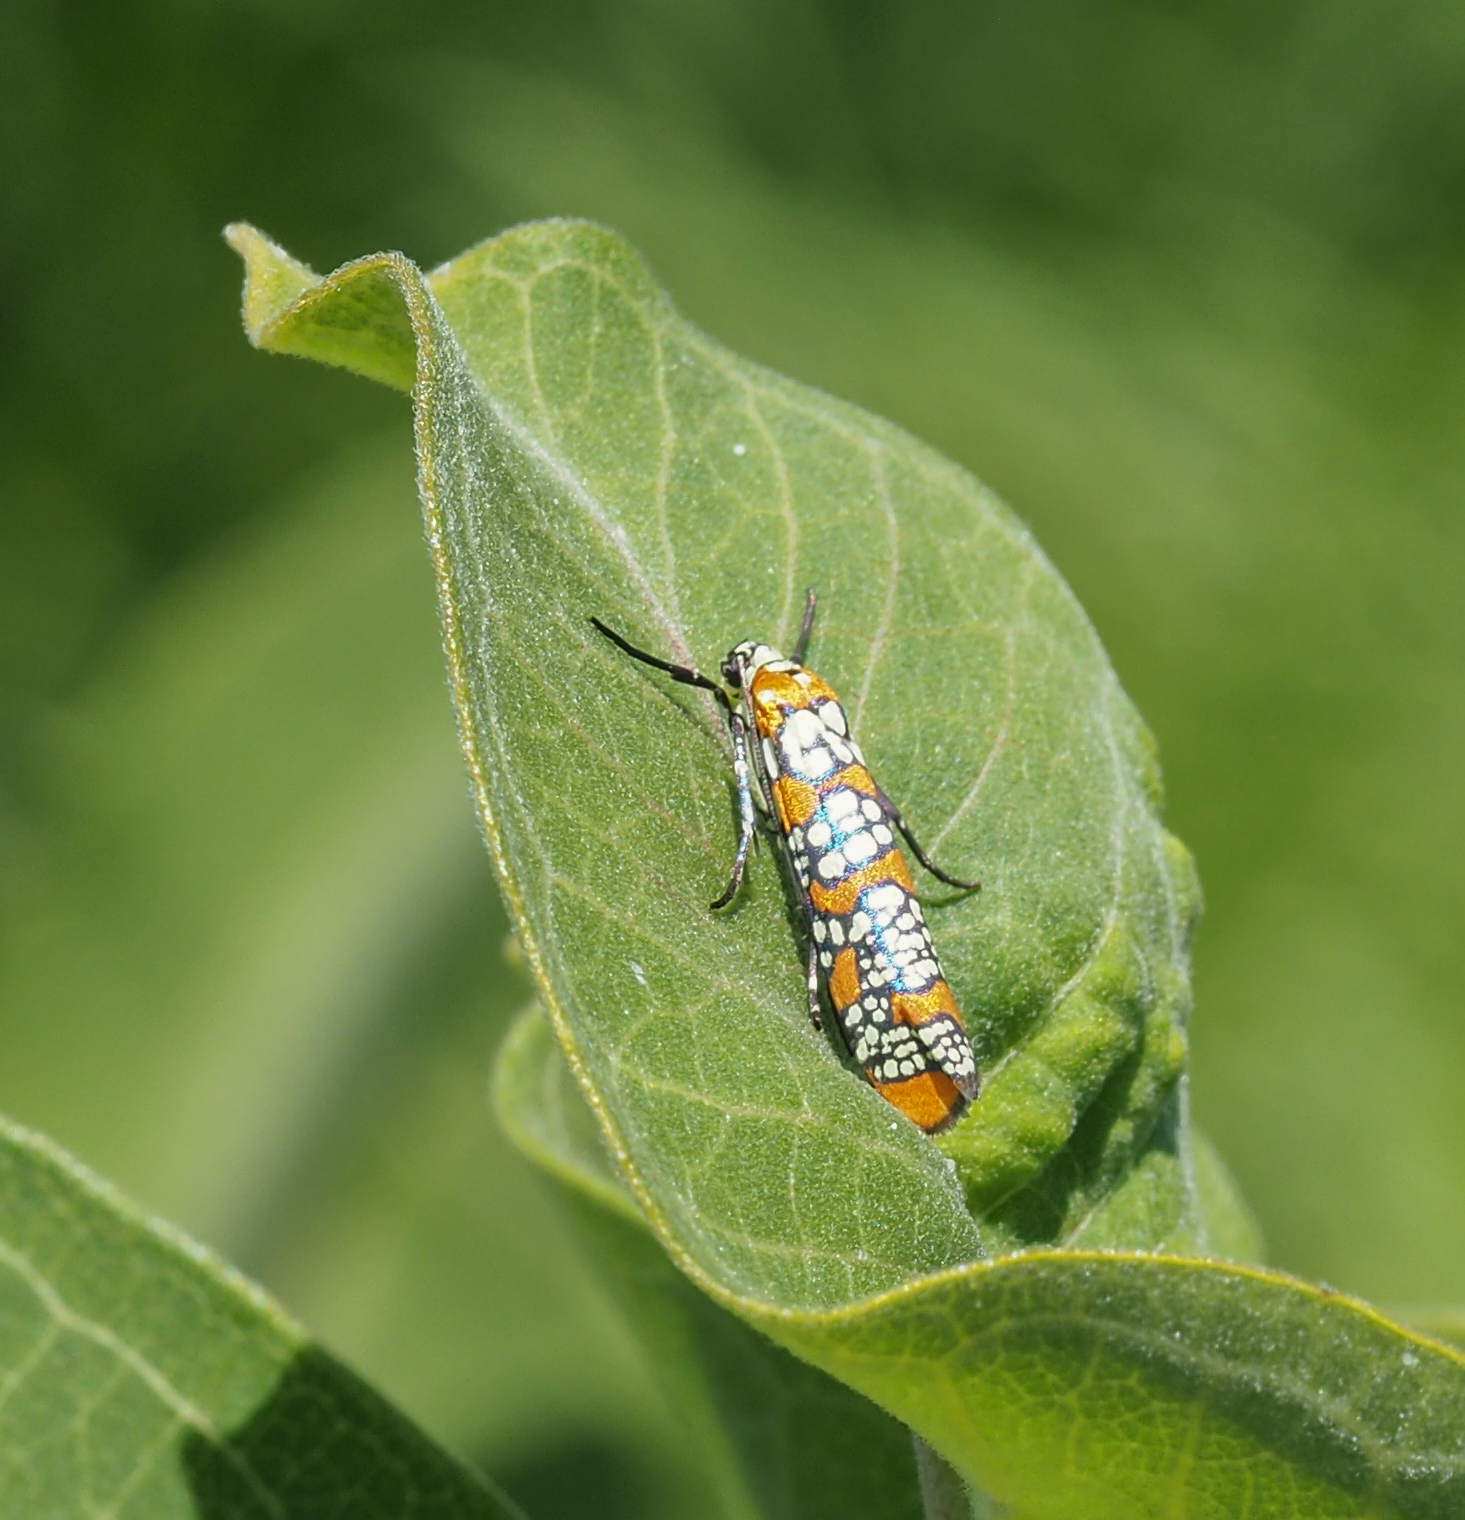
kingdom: Animalia
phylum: Arthropoda
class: Insecta
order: Lepidoptera
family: Attevidae
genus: Atteva
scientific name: Atteva punctella
